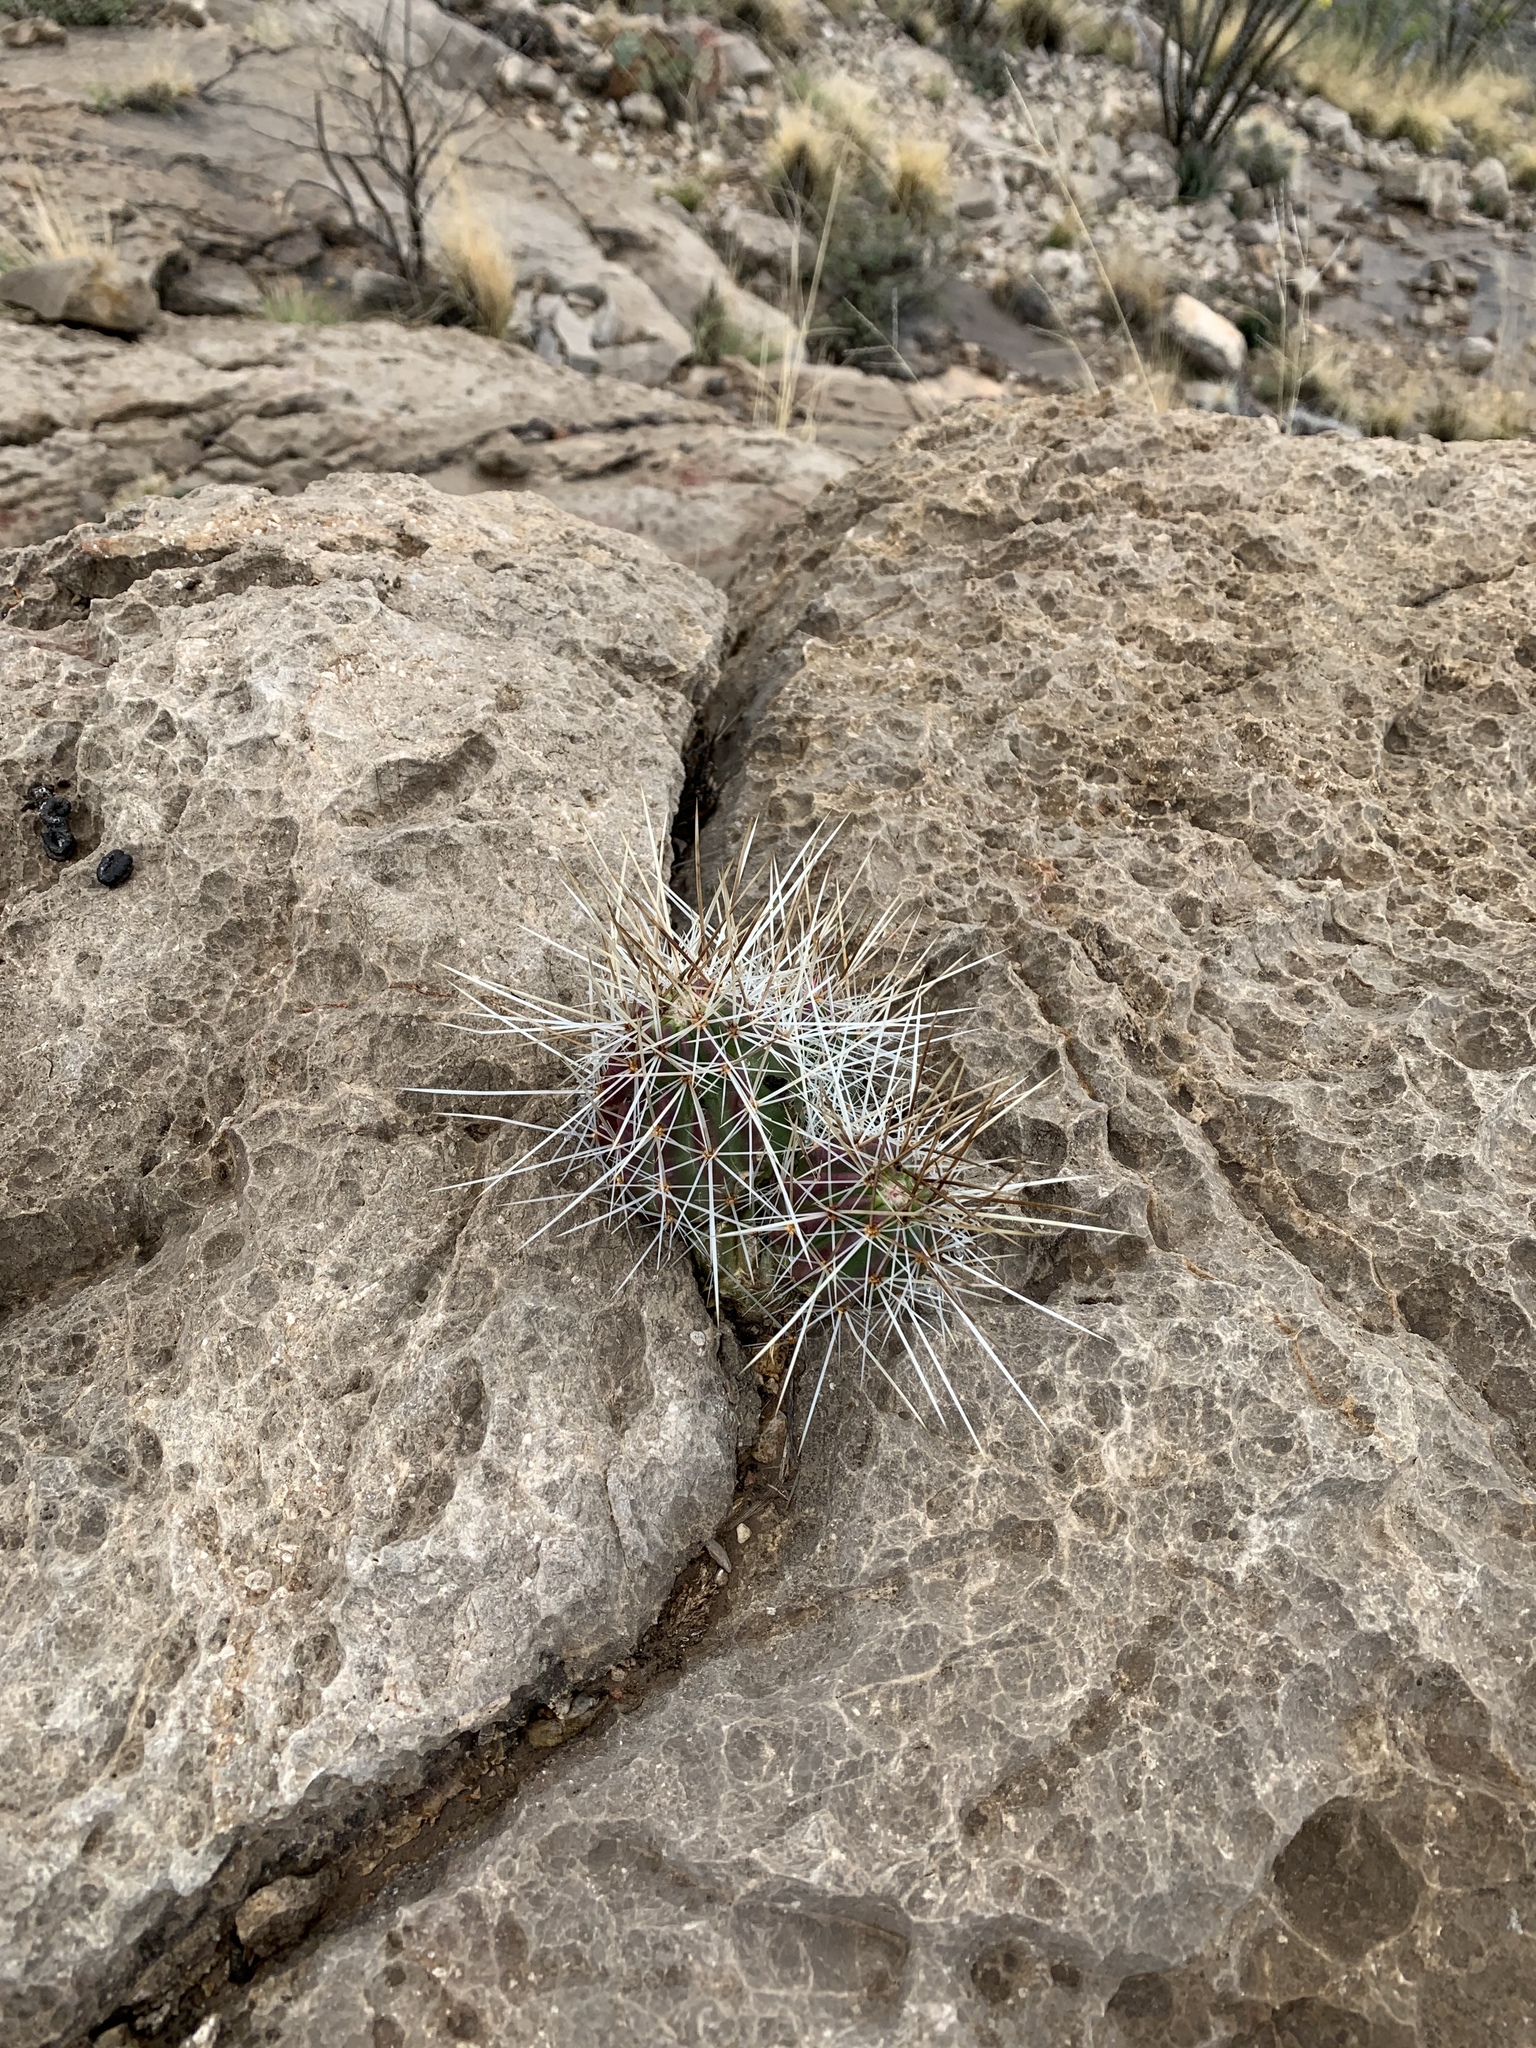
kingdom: Plantae
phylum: Tracheophyta
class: Magnoliopsida
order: Caryophyllales
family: Cactaceae
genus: Echinocereus
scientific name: Echinocereus stramineus
